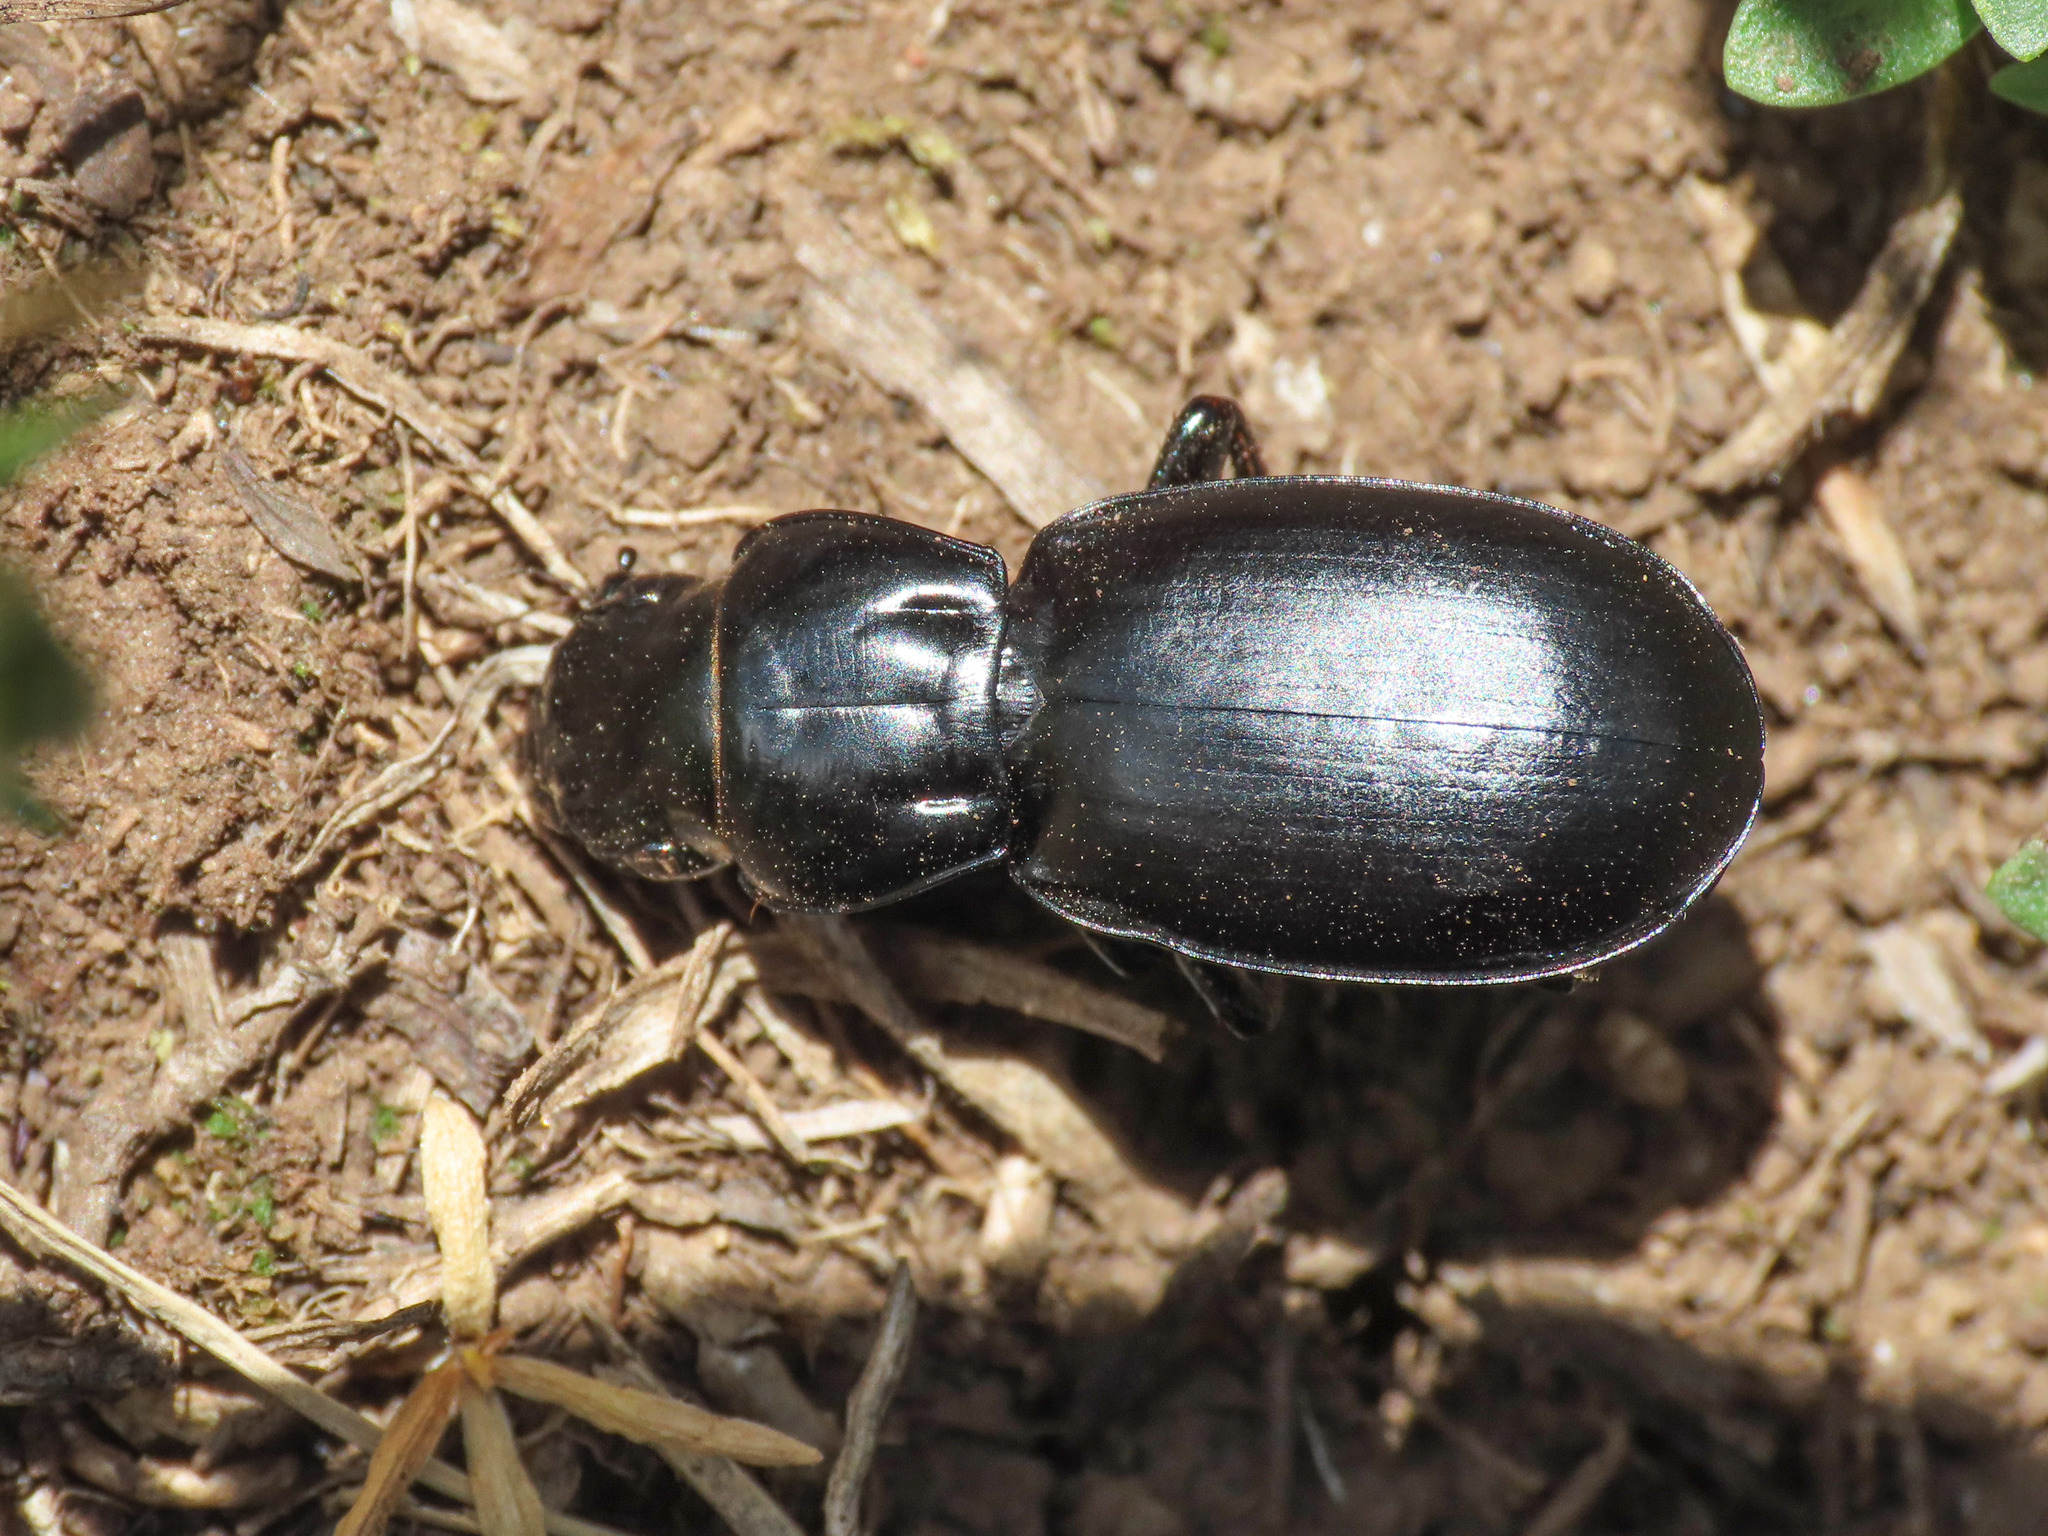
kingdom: Animalia
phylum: Arthropoda
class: Insecta
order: Coleoptera
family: Carabidae
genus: Percus
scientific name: Percus dejeanii
